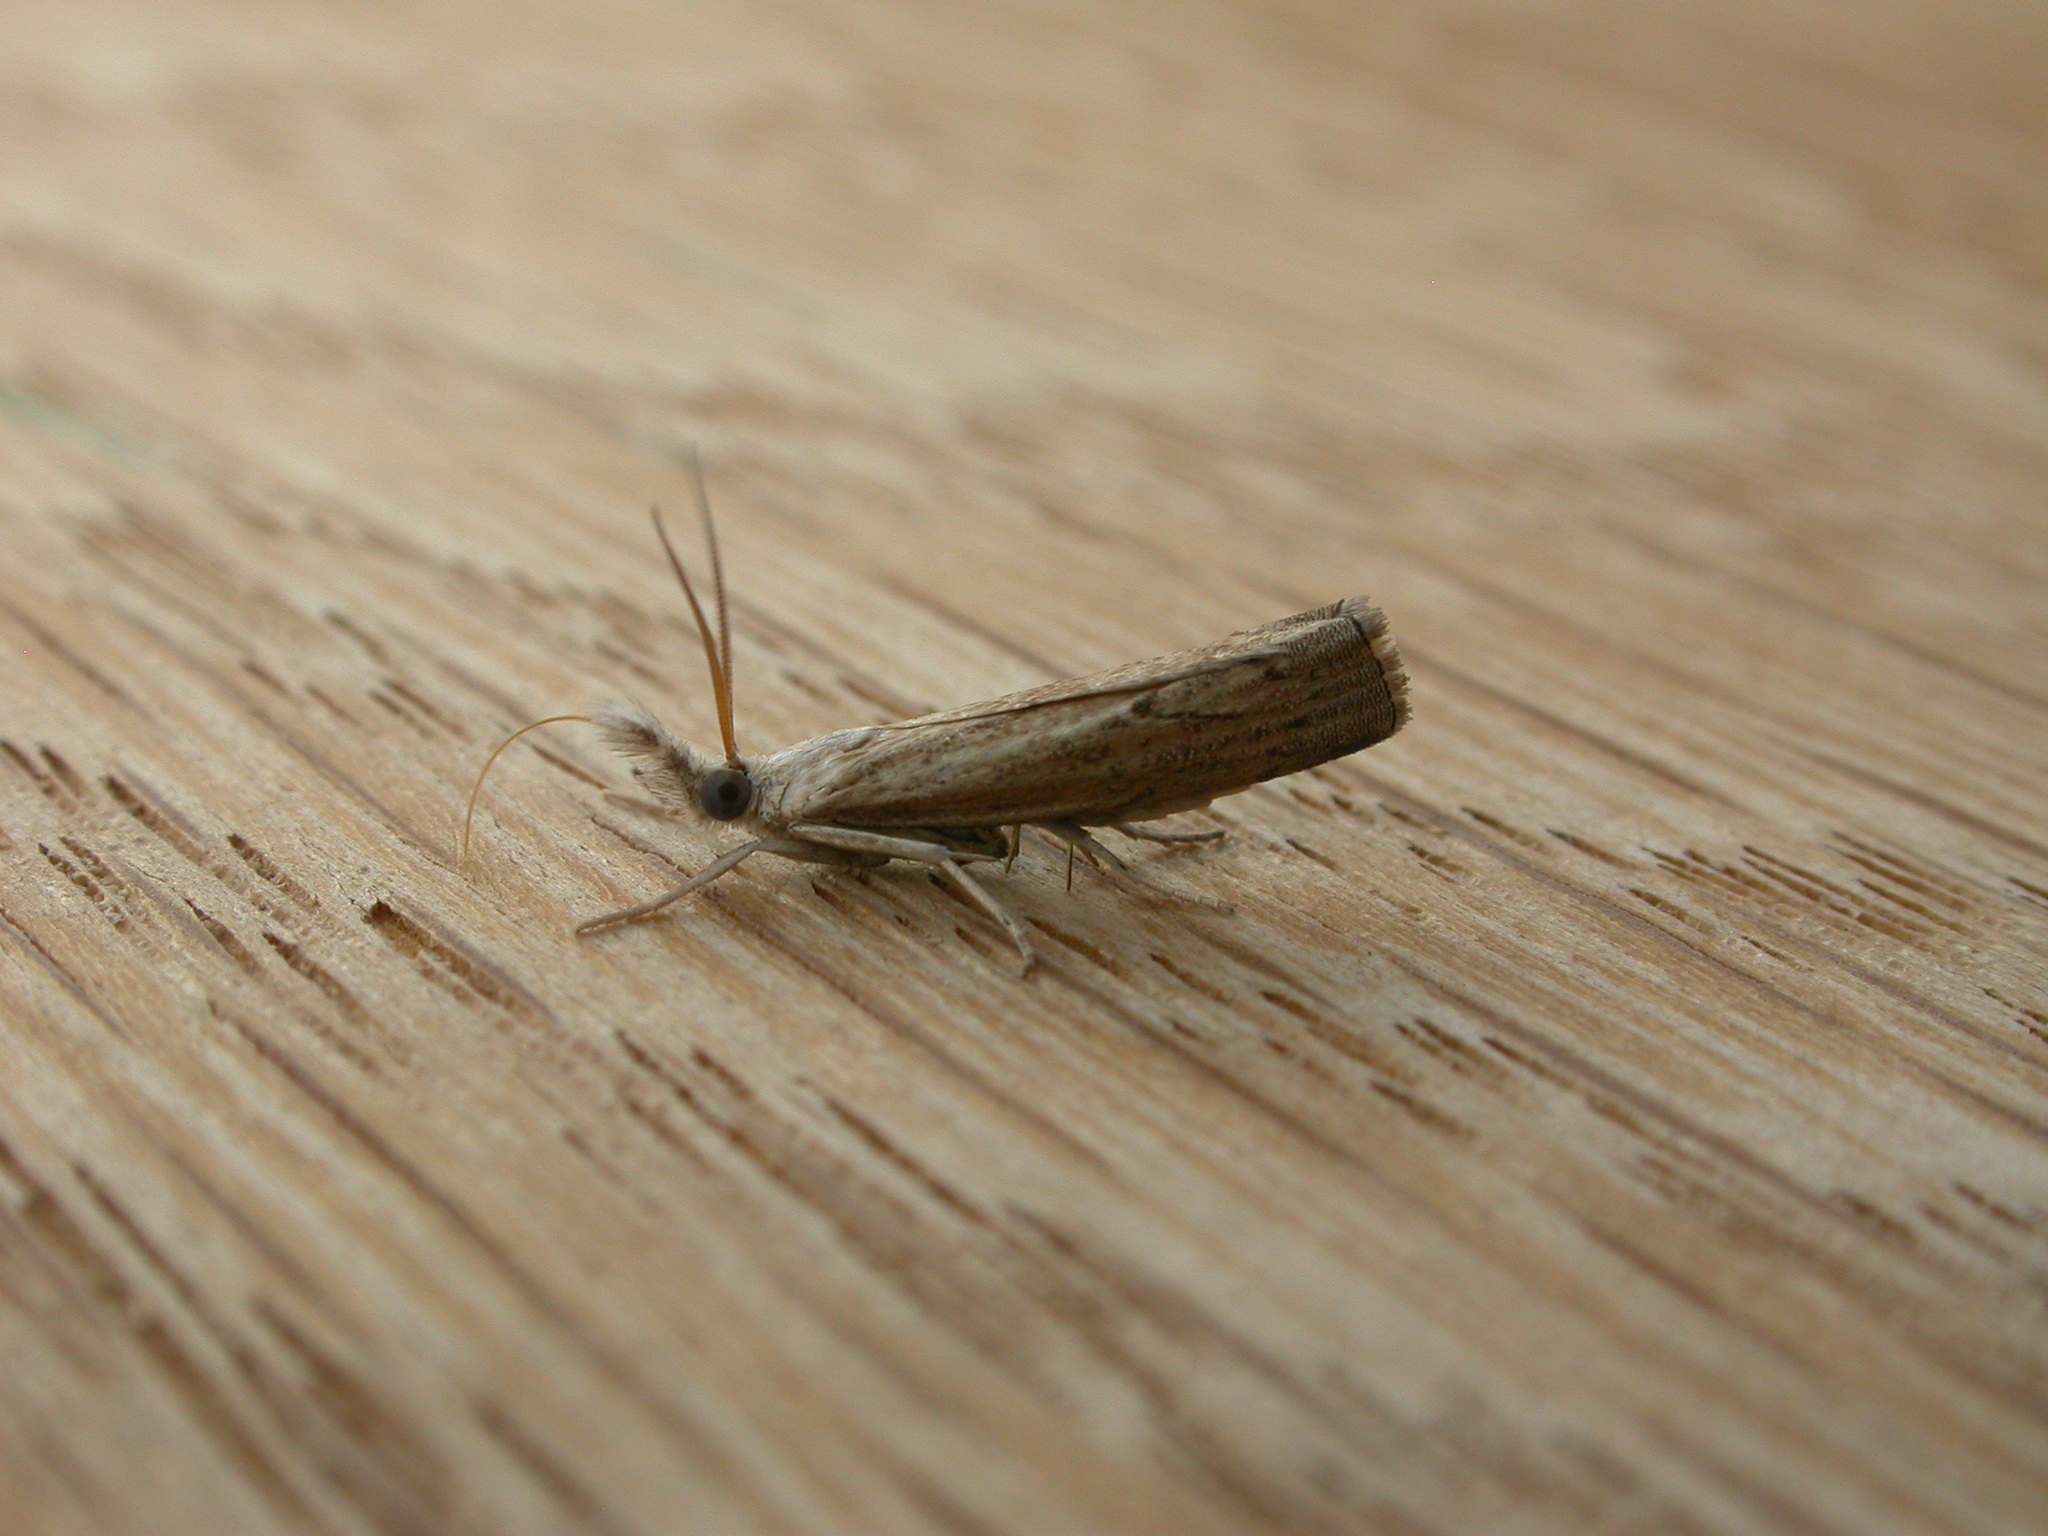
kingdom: Animalia
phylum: Arthropoda
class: Insecta
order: Lepidoptera
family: Crambidae
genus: Culladia
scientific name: Culladia cuneiferellus
